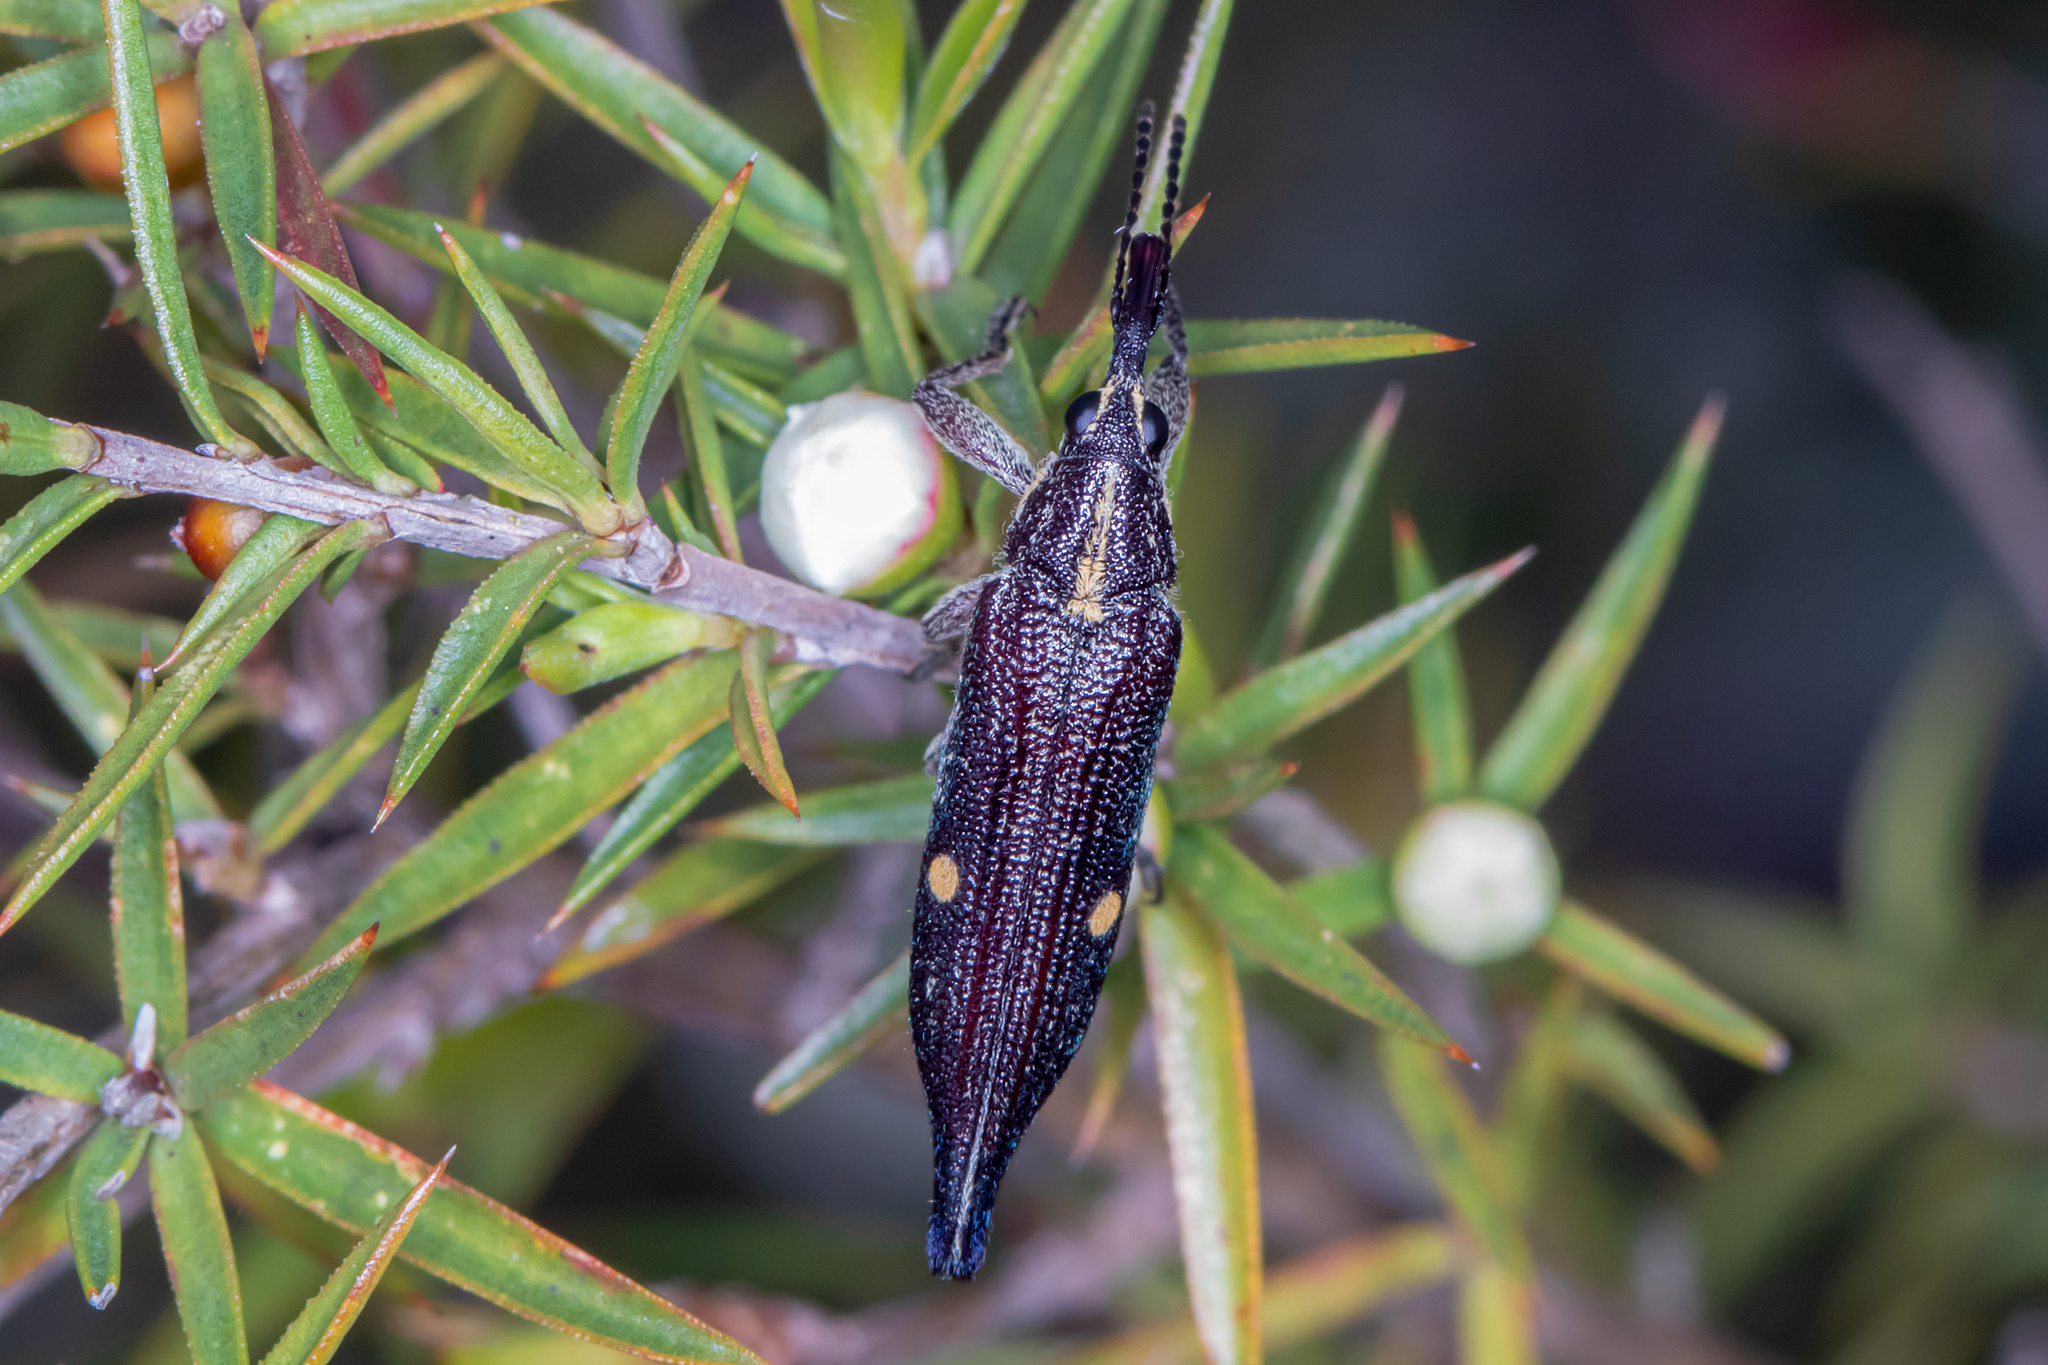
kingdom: Animalia
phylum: Arthropoda
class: Insecta
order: Coleoptera
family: Belidae
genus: Rhinotia
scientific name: Rhinotia bidentata
